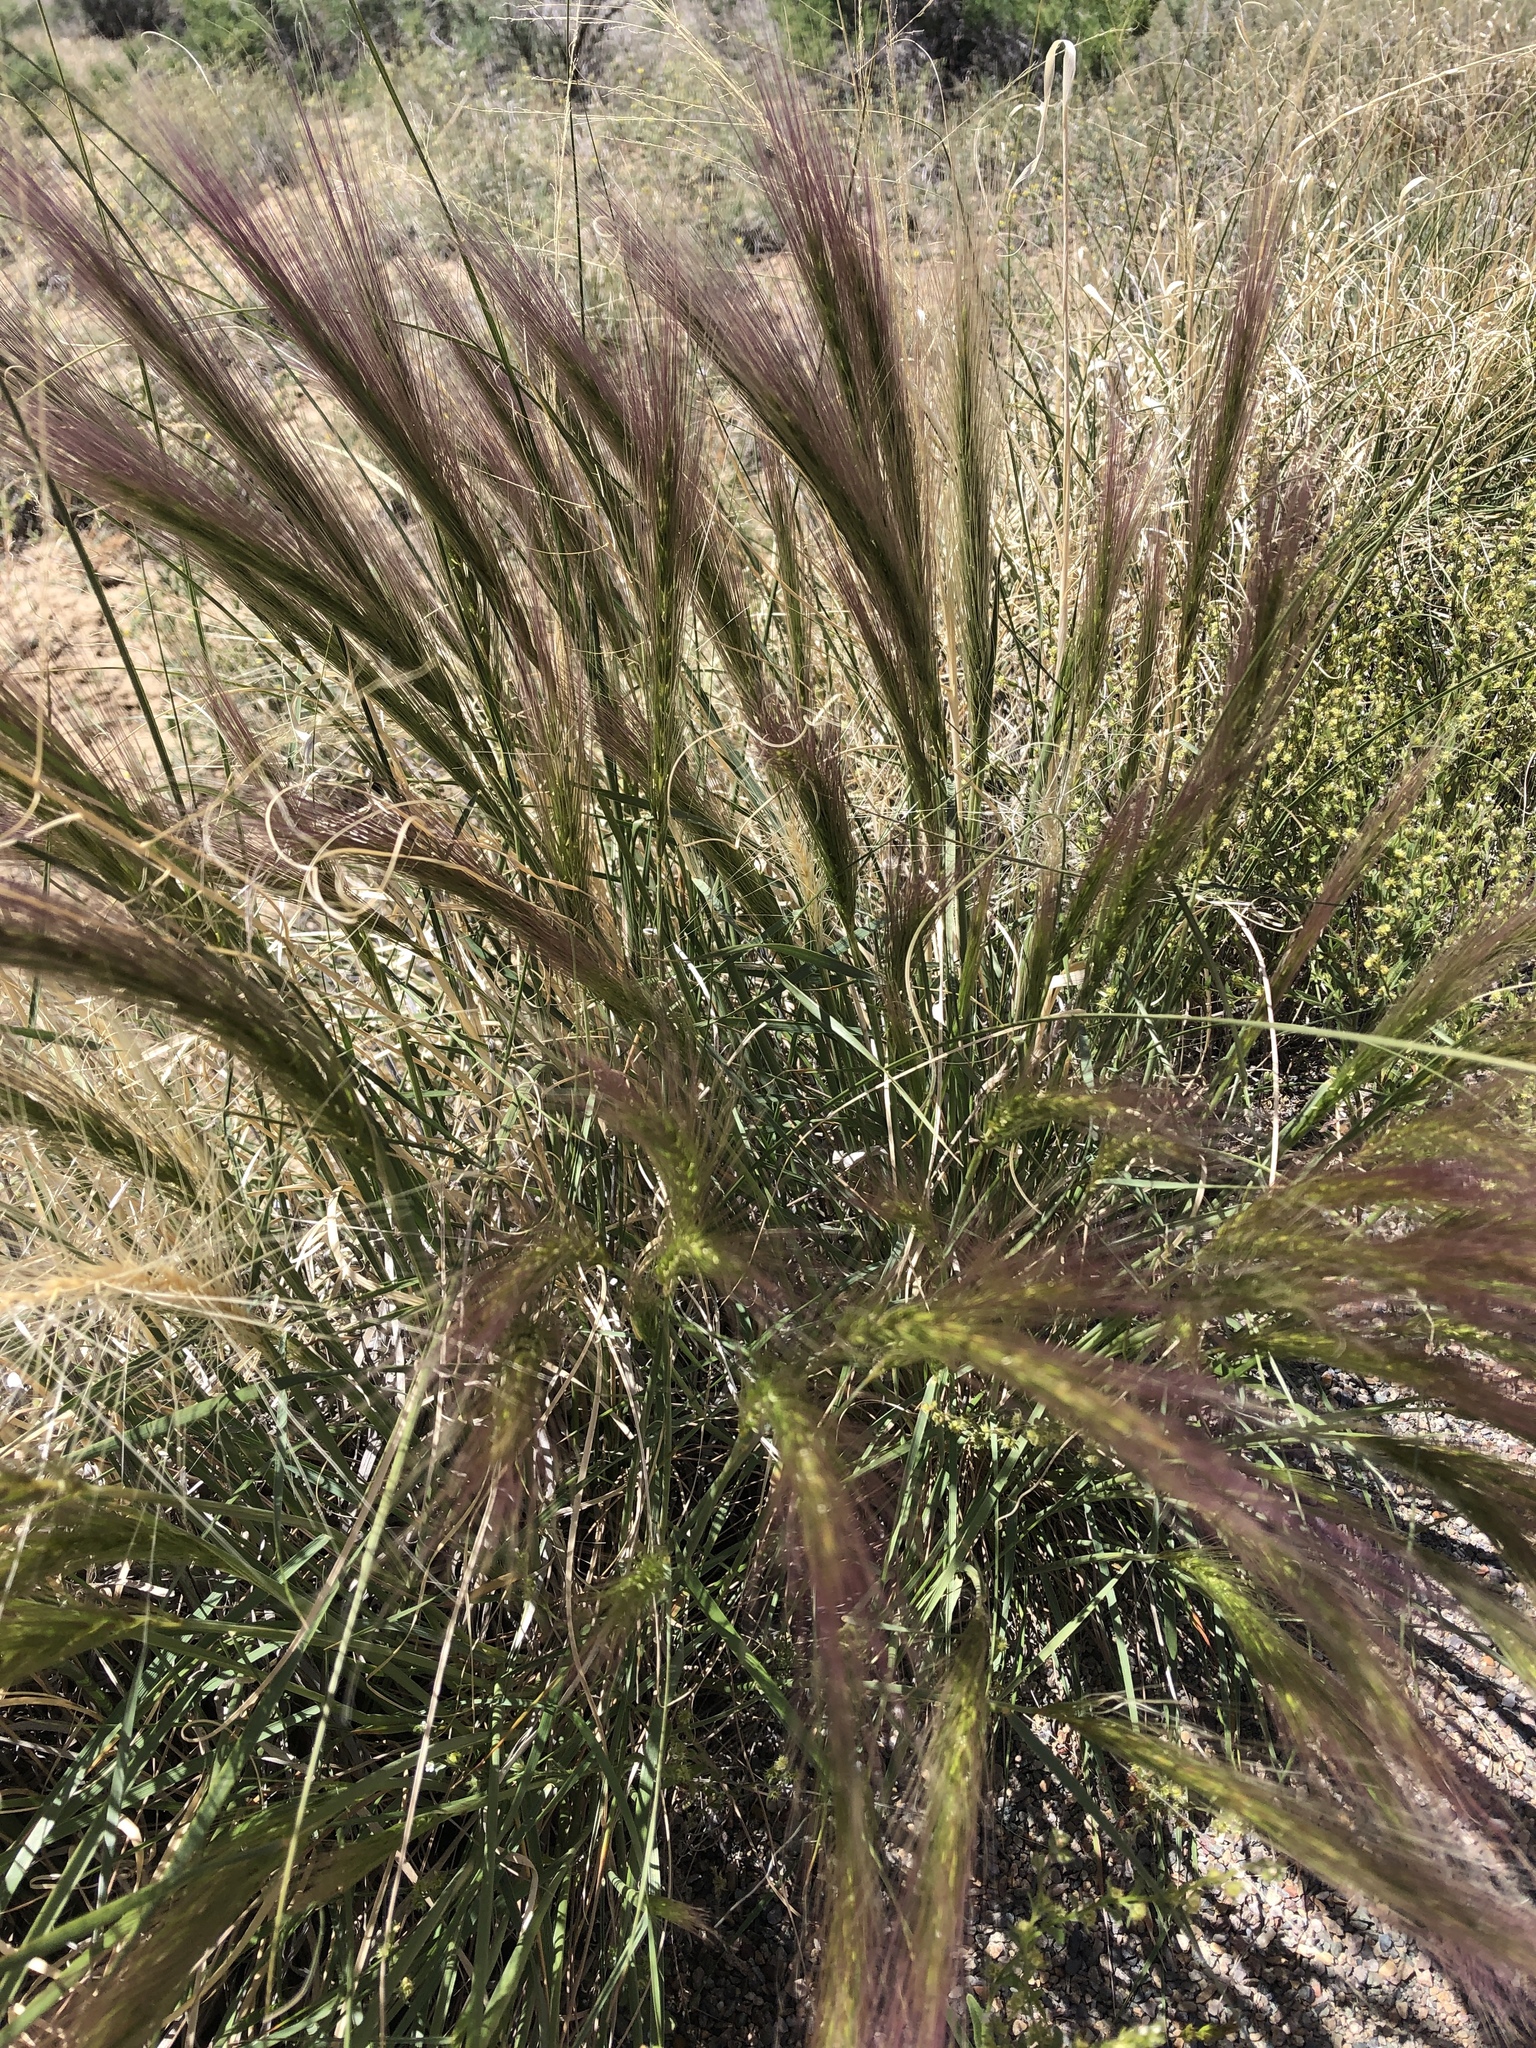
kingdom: Plantae
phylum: Tracheophyta
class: Liliopsida
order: Poales
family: Poaceae
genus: Elymus
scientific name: Elymus elymoides
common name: Bottlebrush squirreltail
